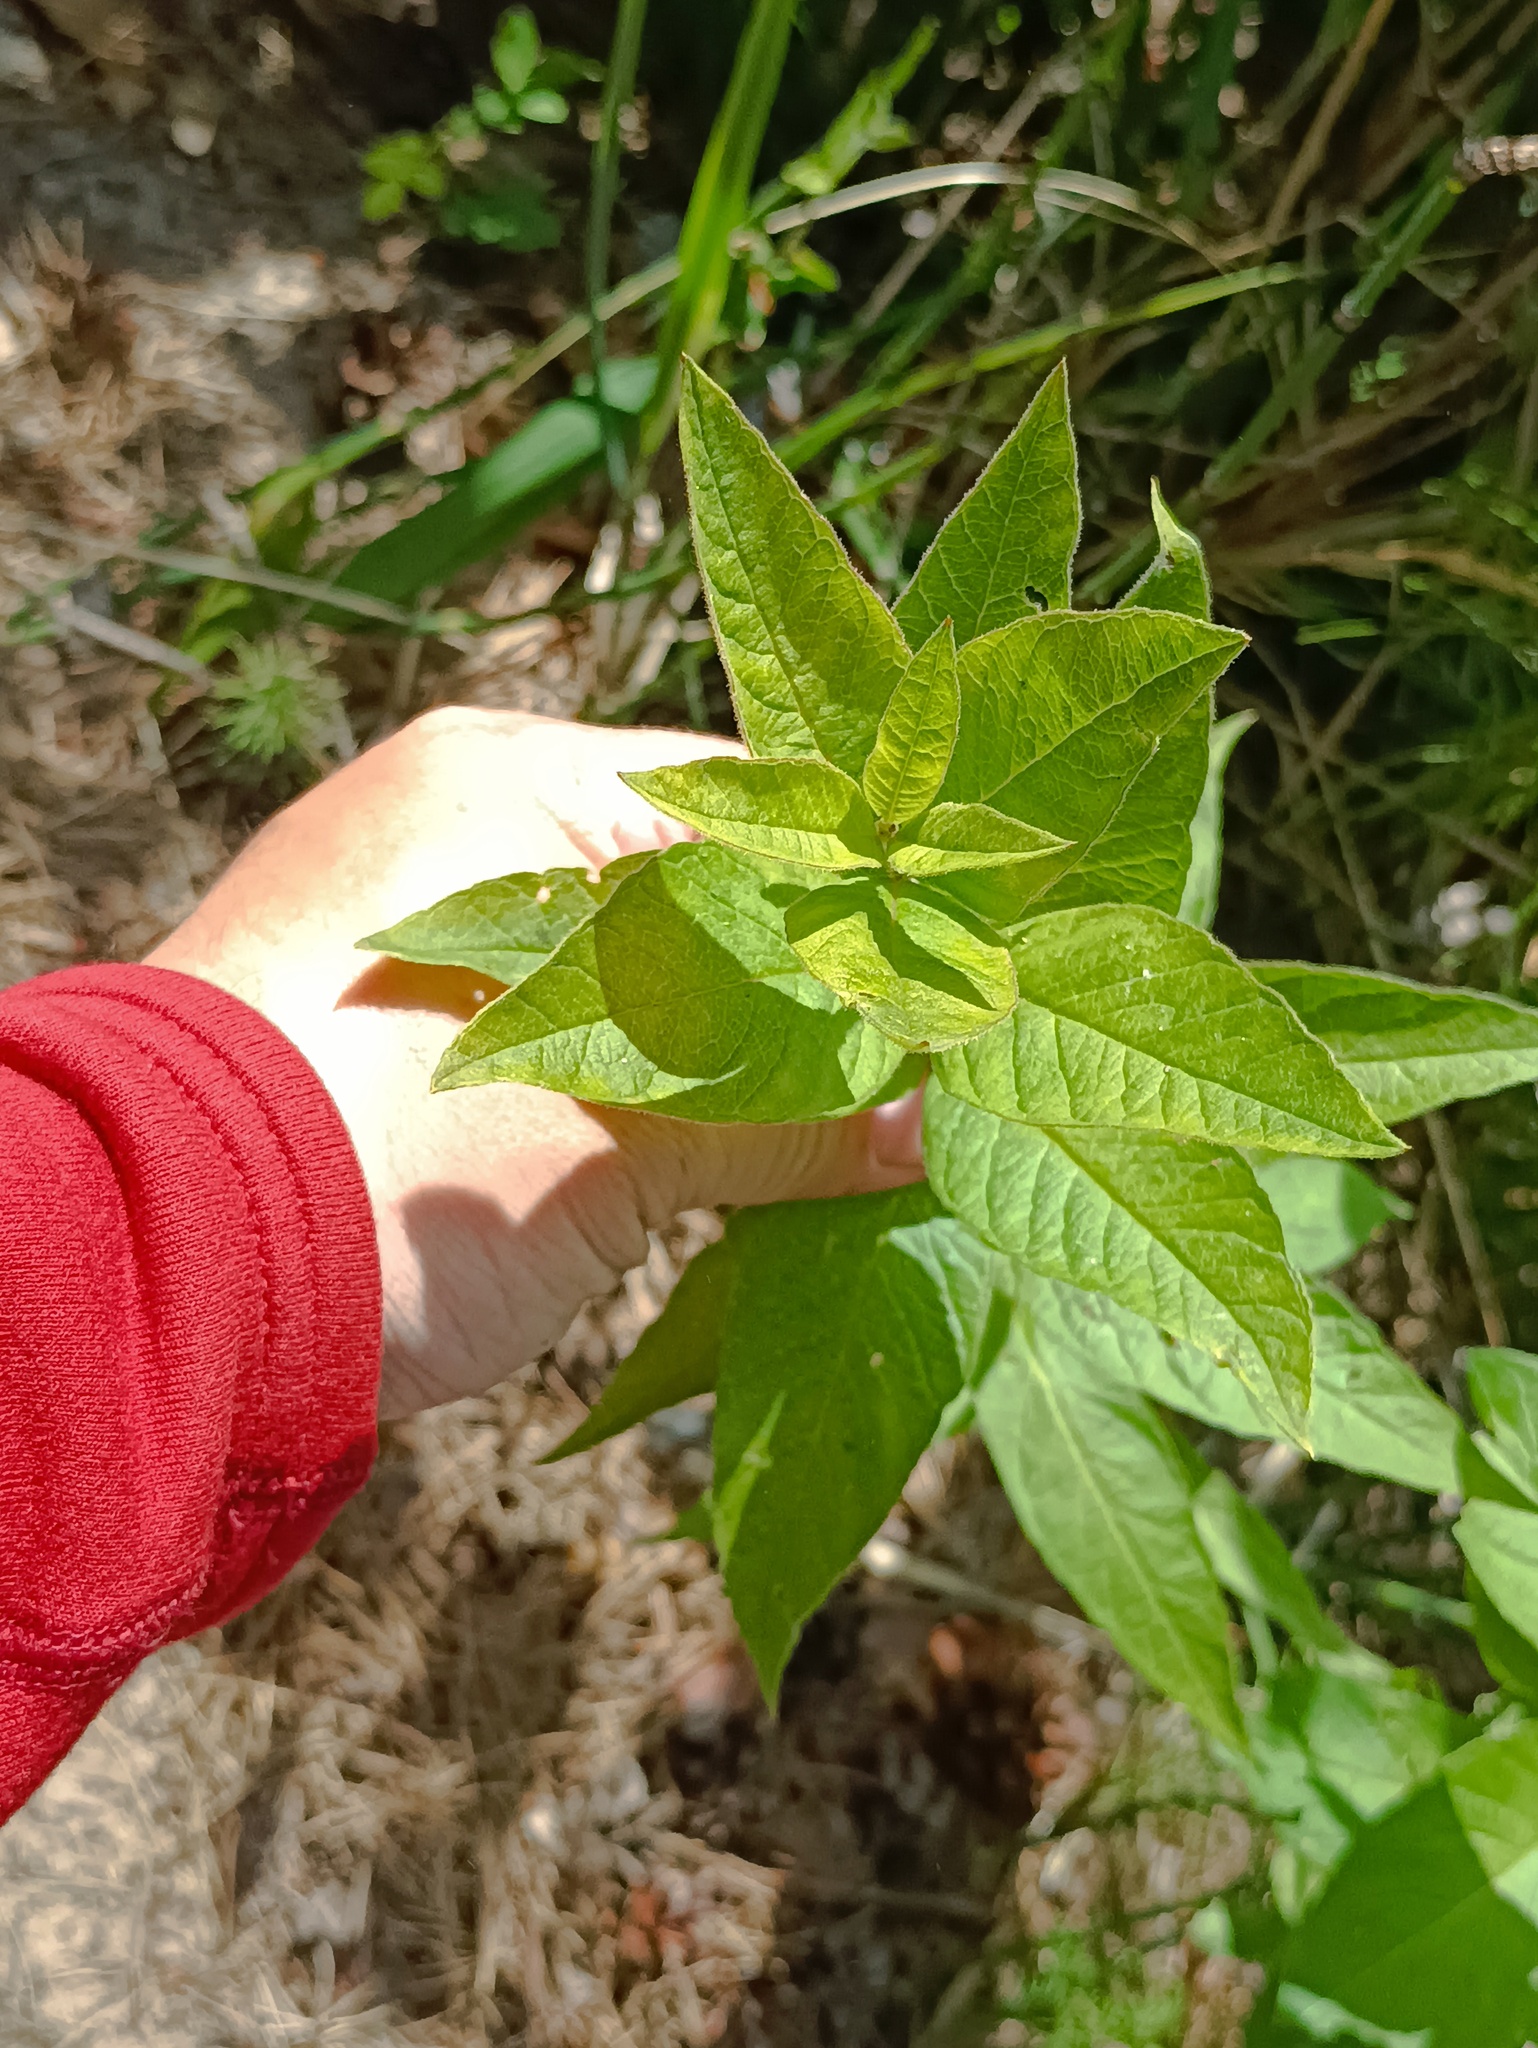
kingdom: Plantae
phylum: Tracheophyta
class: Magnoliopsida
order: Ericales
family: Primulaceae
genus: Lysimachia
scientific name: Lysimachia vulgaris
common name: Yellow loosestrife
